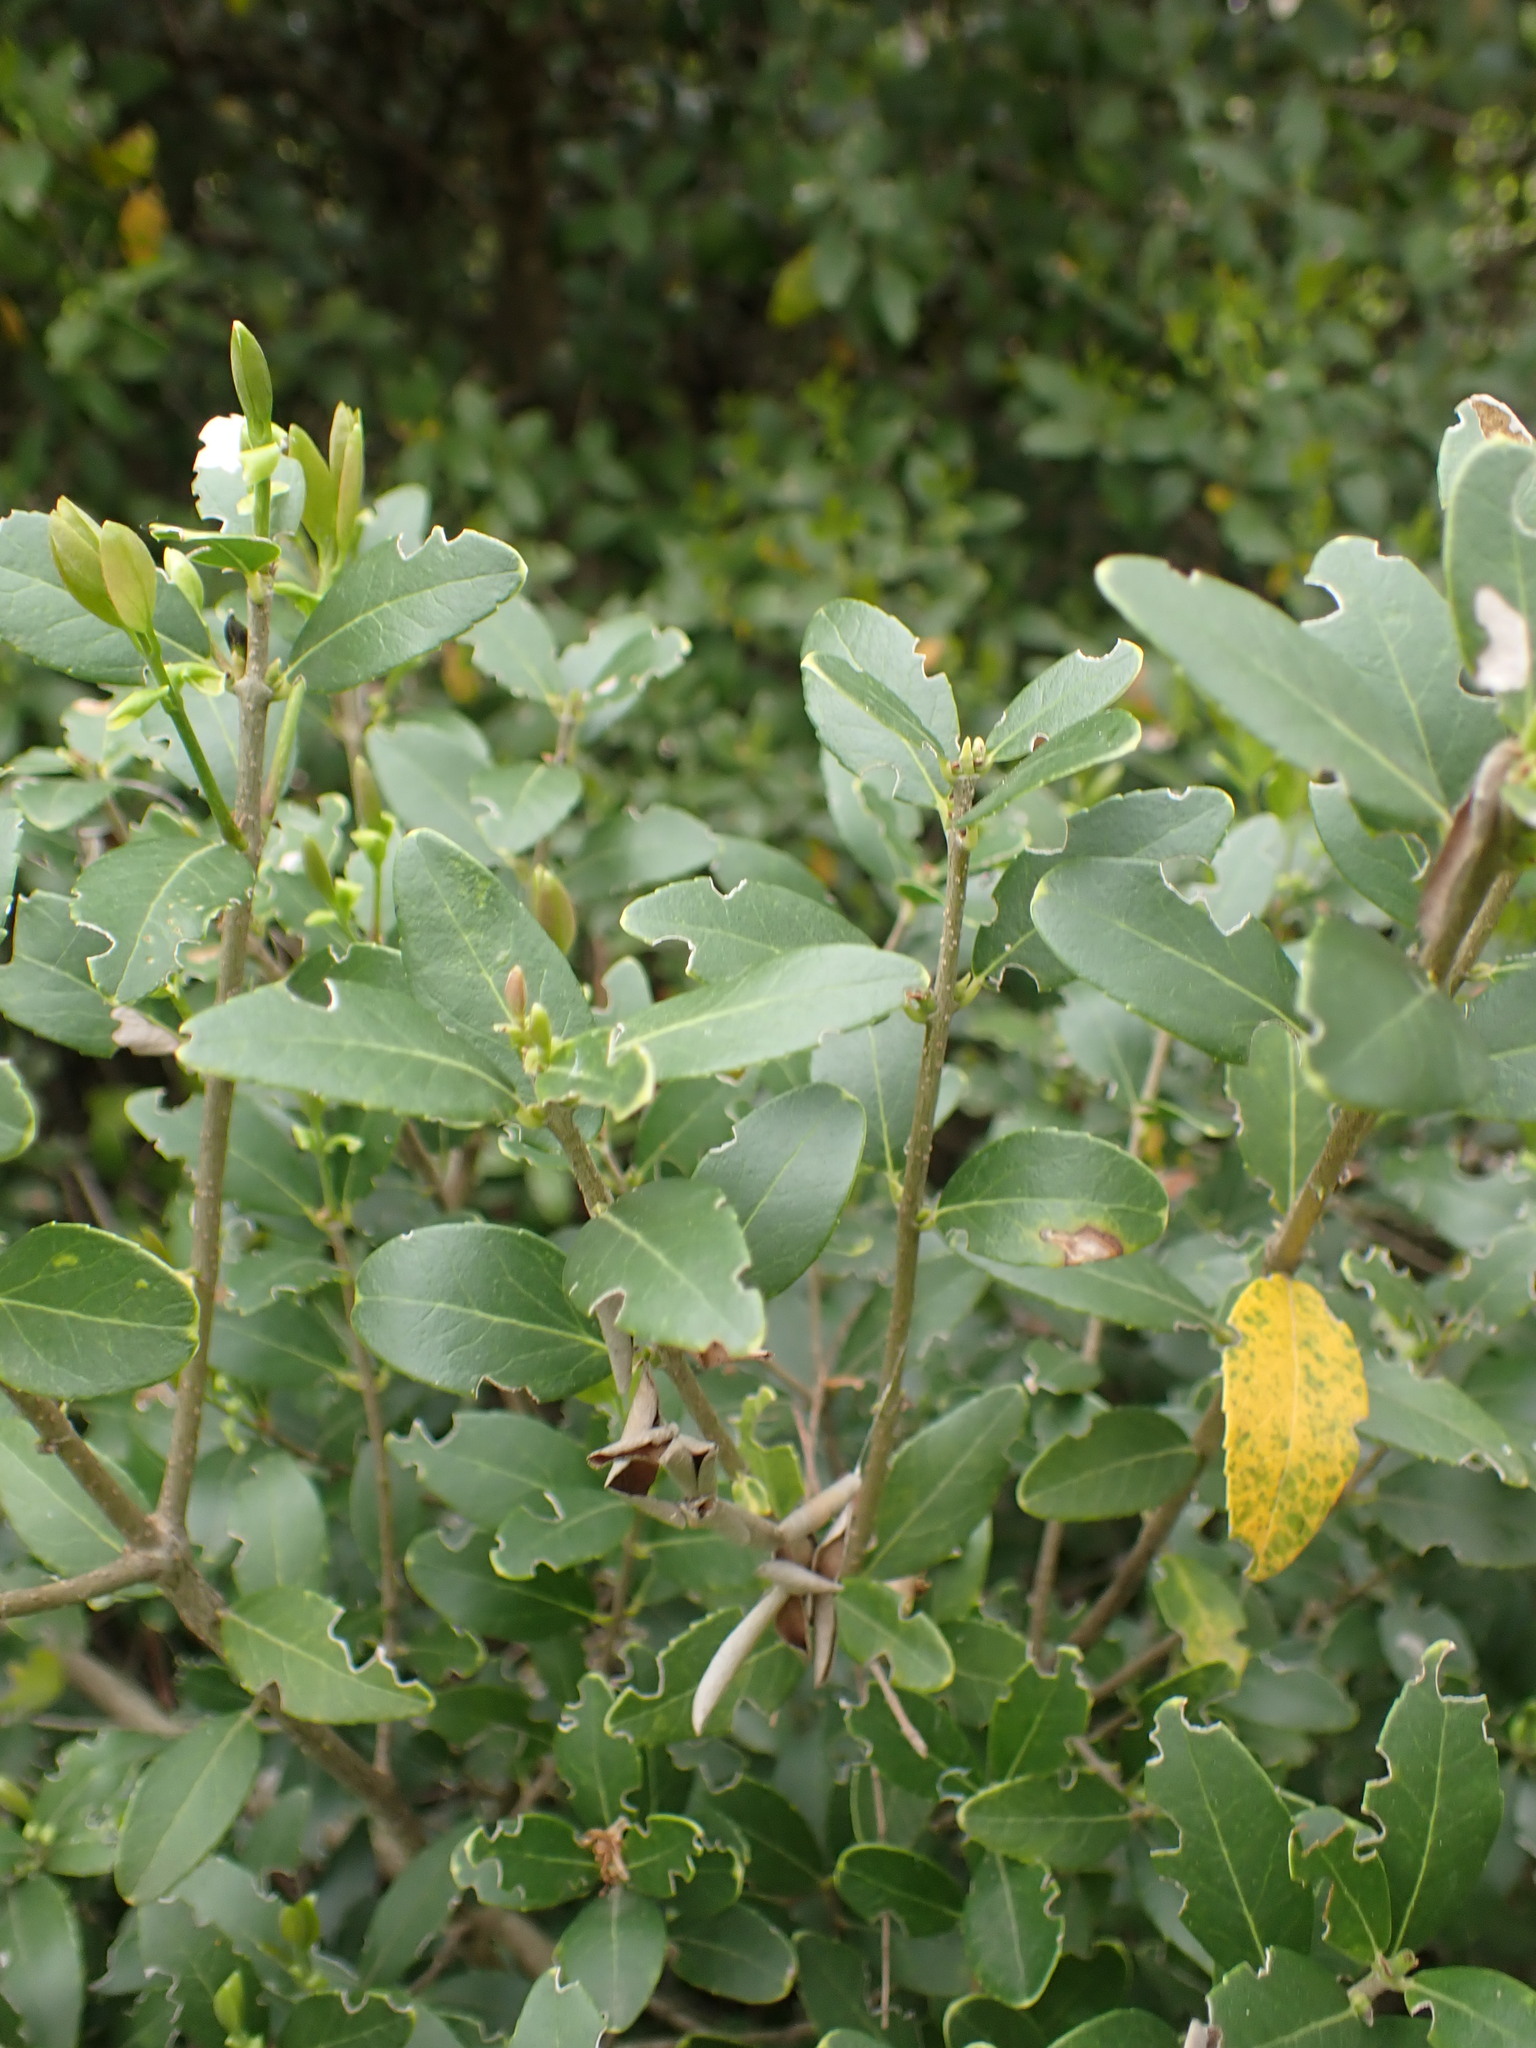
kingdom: Plantae
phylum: Tracheophyta
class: Magnoliopsida
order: Lamiales
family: Oleaceae
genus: Phillyrea
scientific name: Phillyrea latifolia
